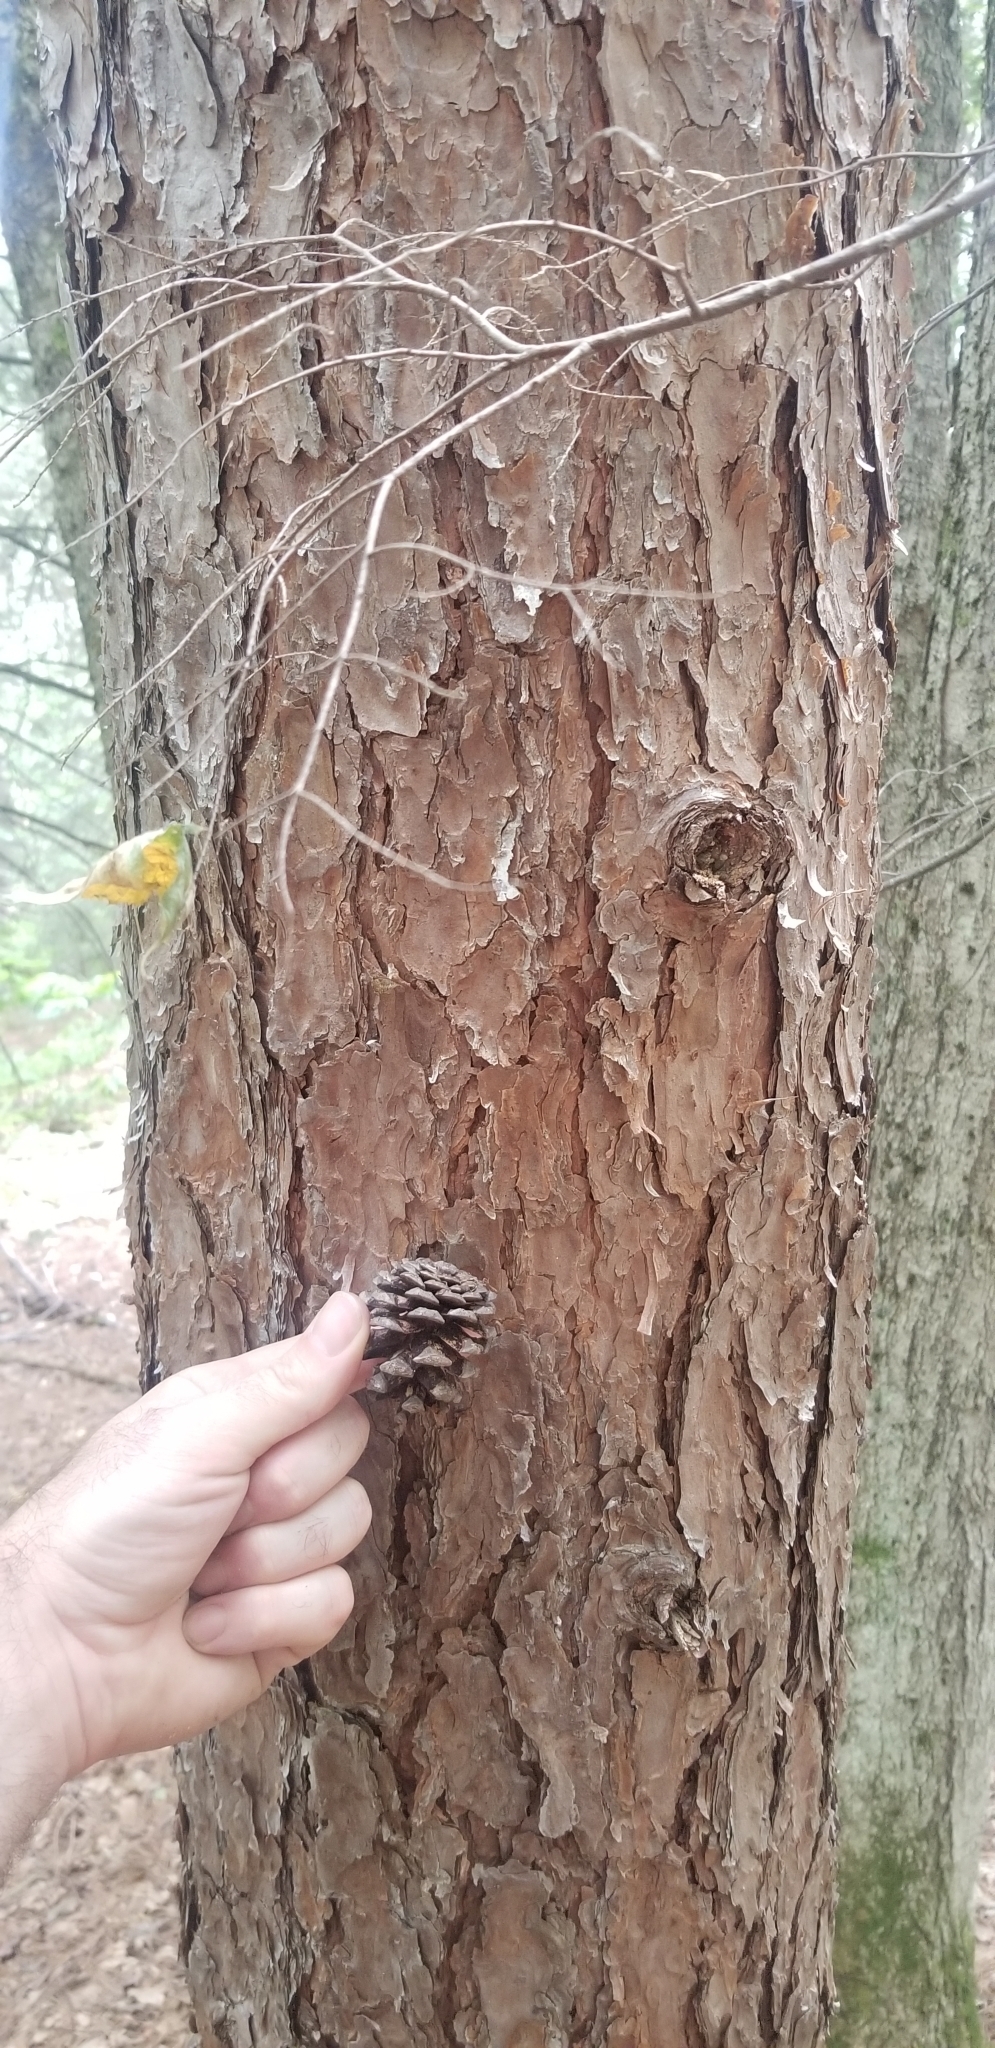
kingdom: Plantae
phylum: Tracheophyta
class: Pinopsida
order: Pinales
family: Pinaceae
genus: Pinus
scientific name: Pinus resinosa
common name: Norway pine
